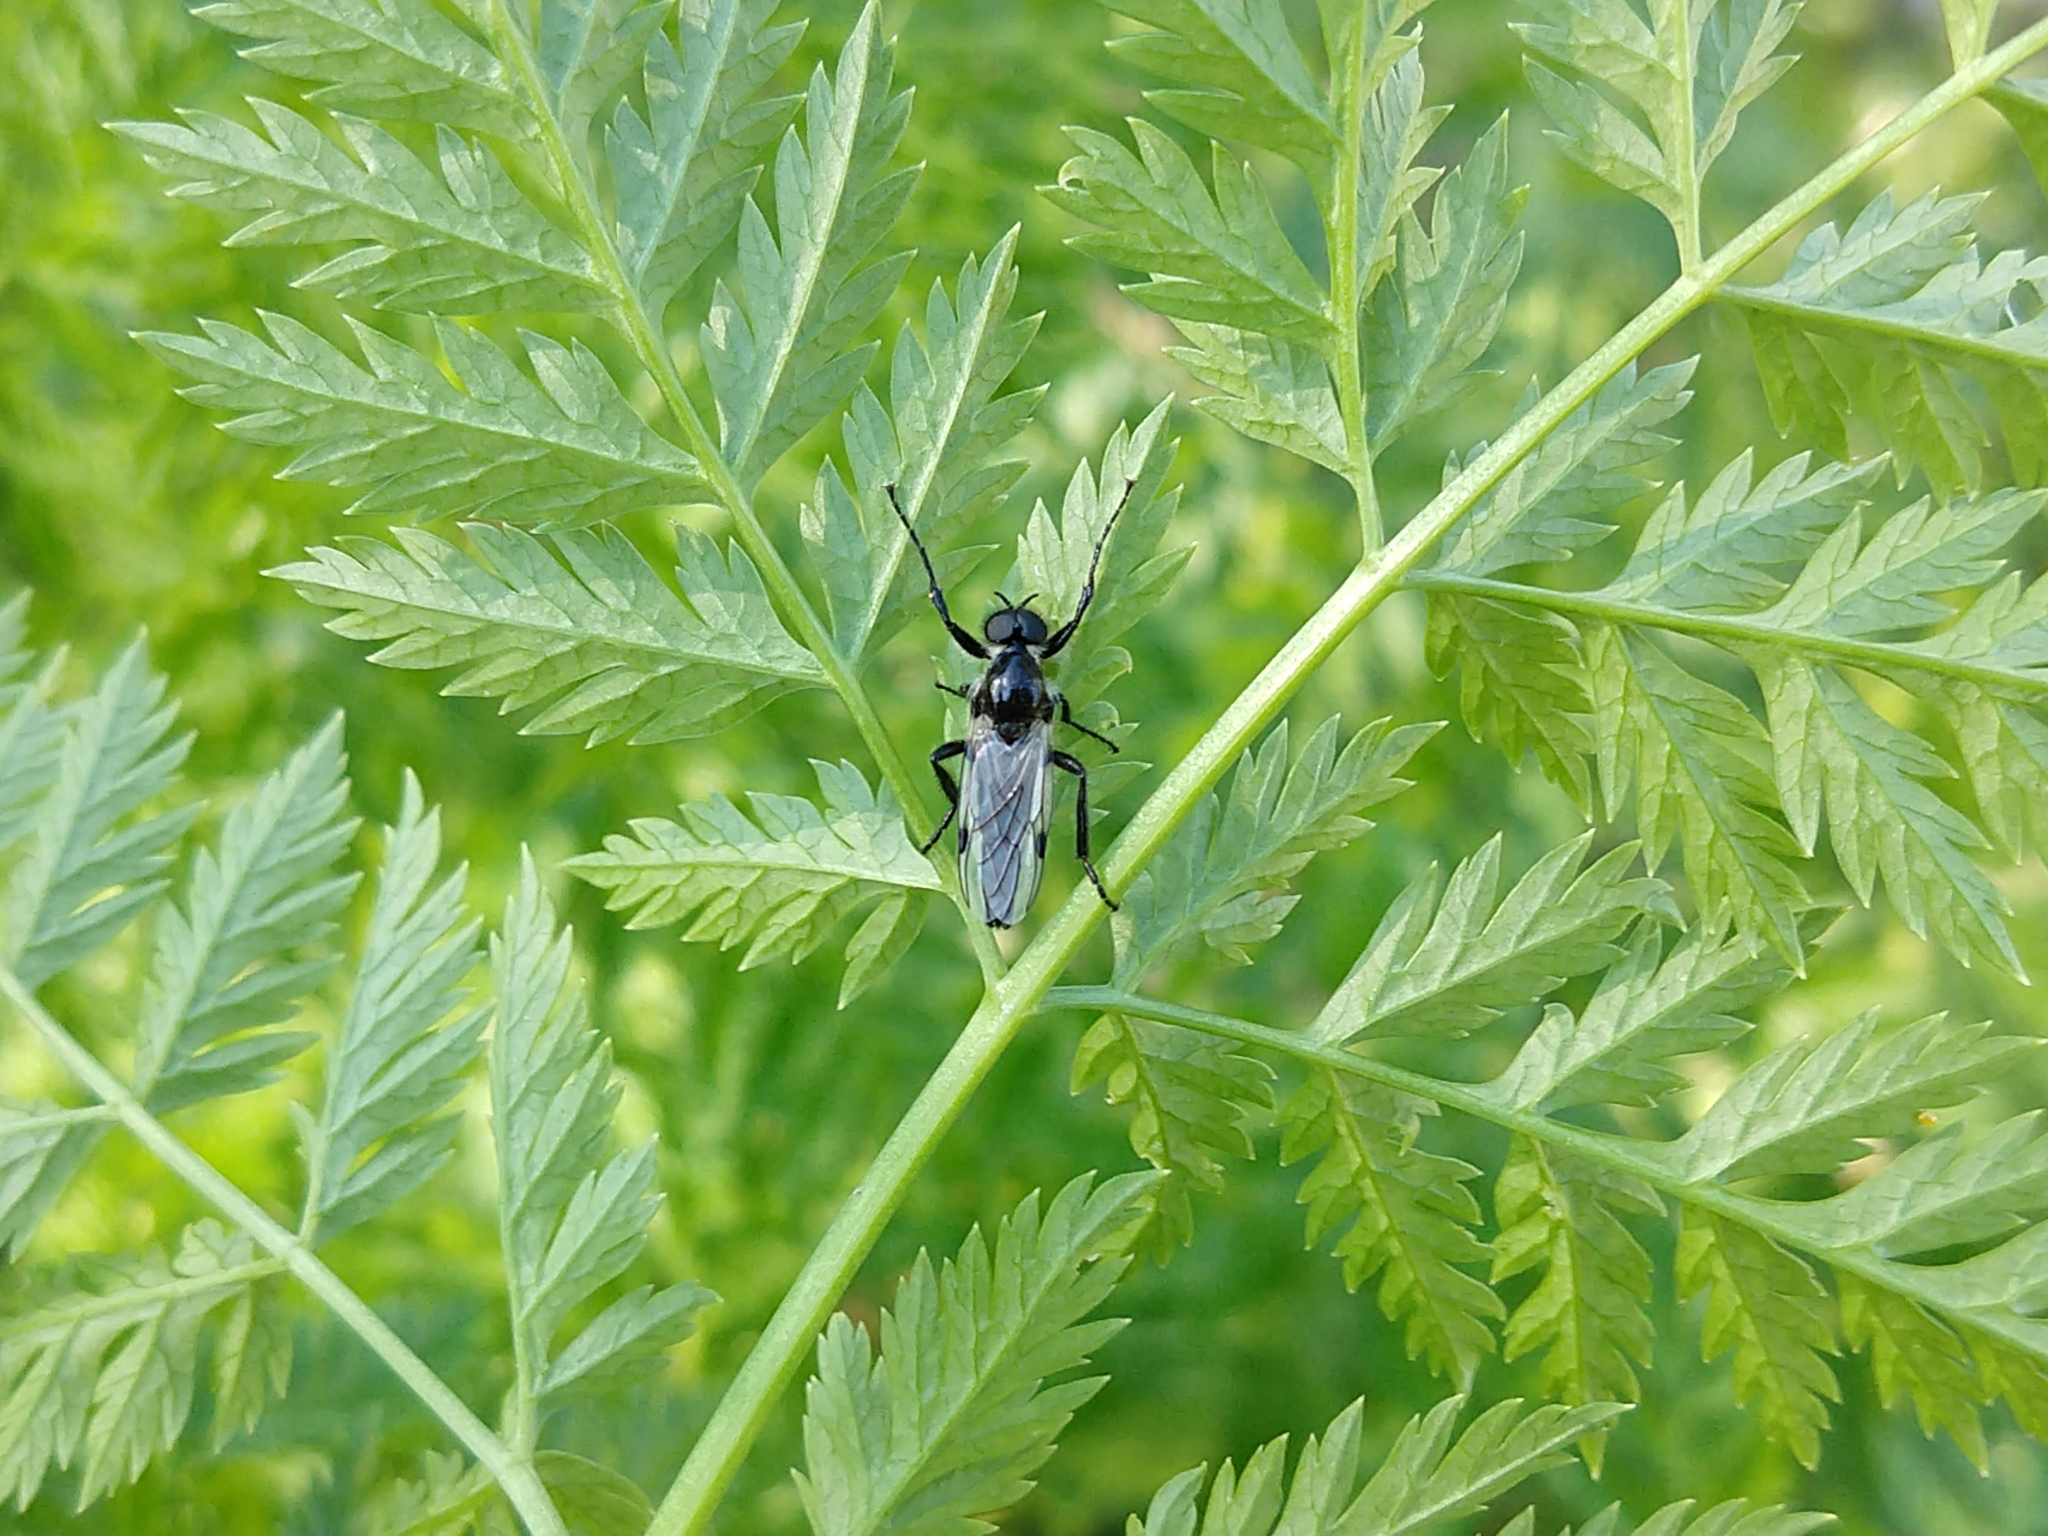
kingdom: Animalia
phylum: Arthropoda
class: Insecta
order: Diptera
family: Bibionidae
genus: Bibio
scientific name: Bibio albipennis
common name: White-winged march fly
